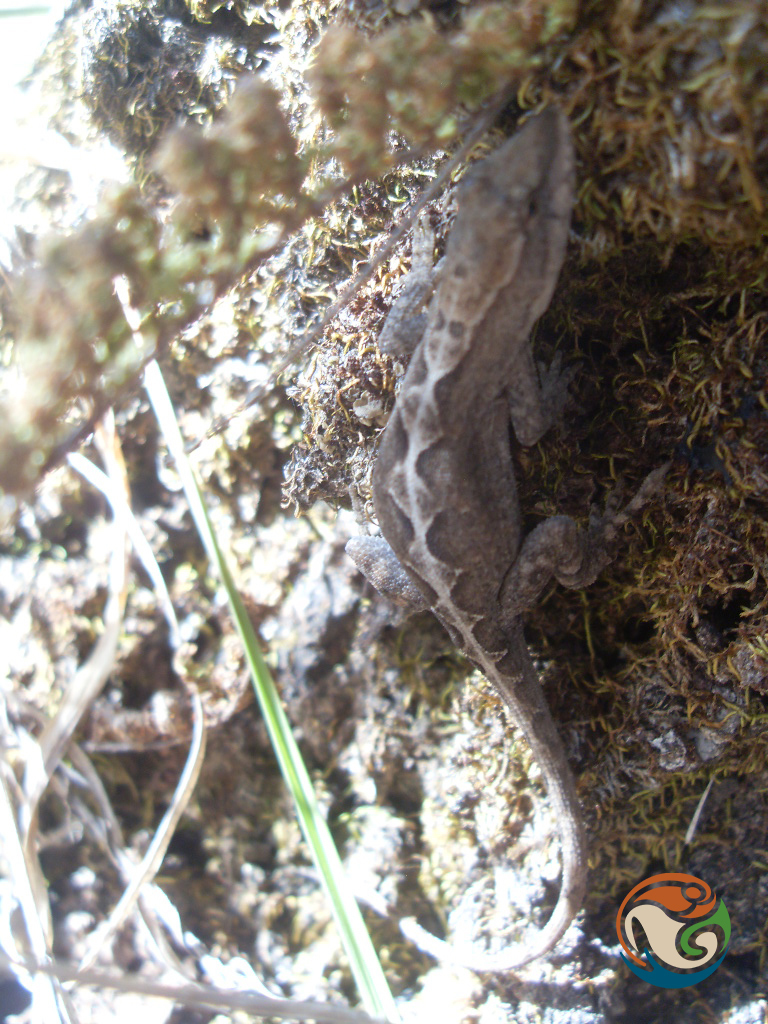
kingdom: Animalia
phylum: Chordata
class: Squamata
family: Dactyloidae
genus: Anolis
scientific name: Anolis quercorum
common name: Gray anole
